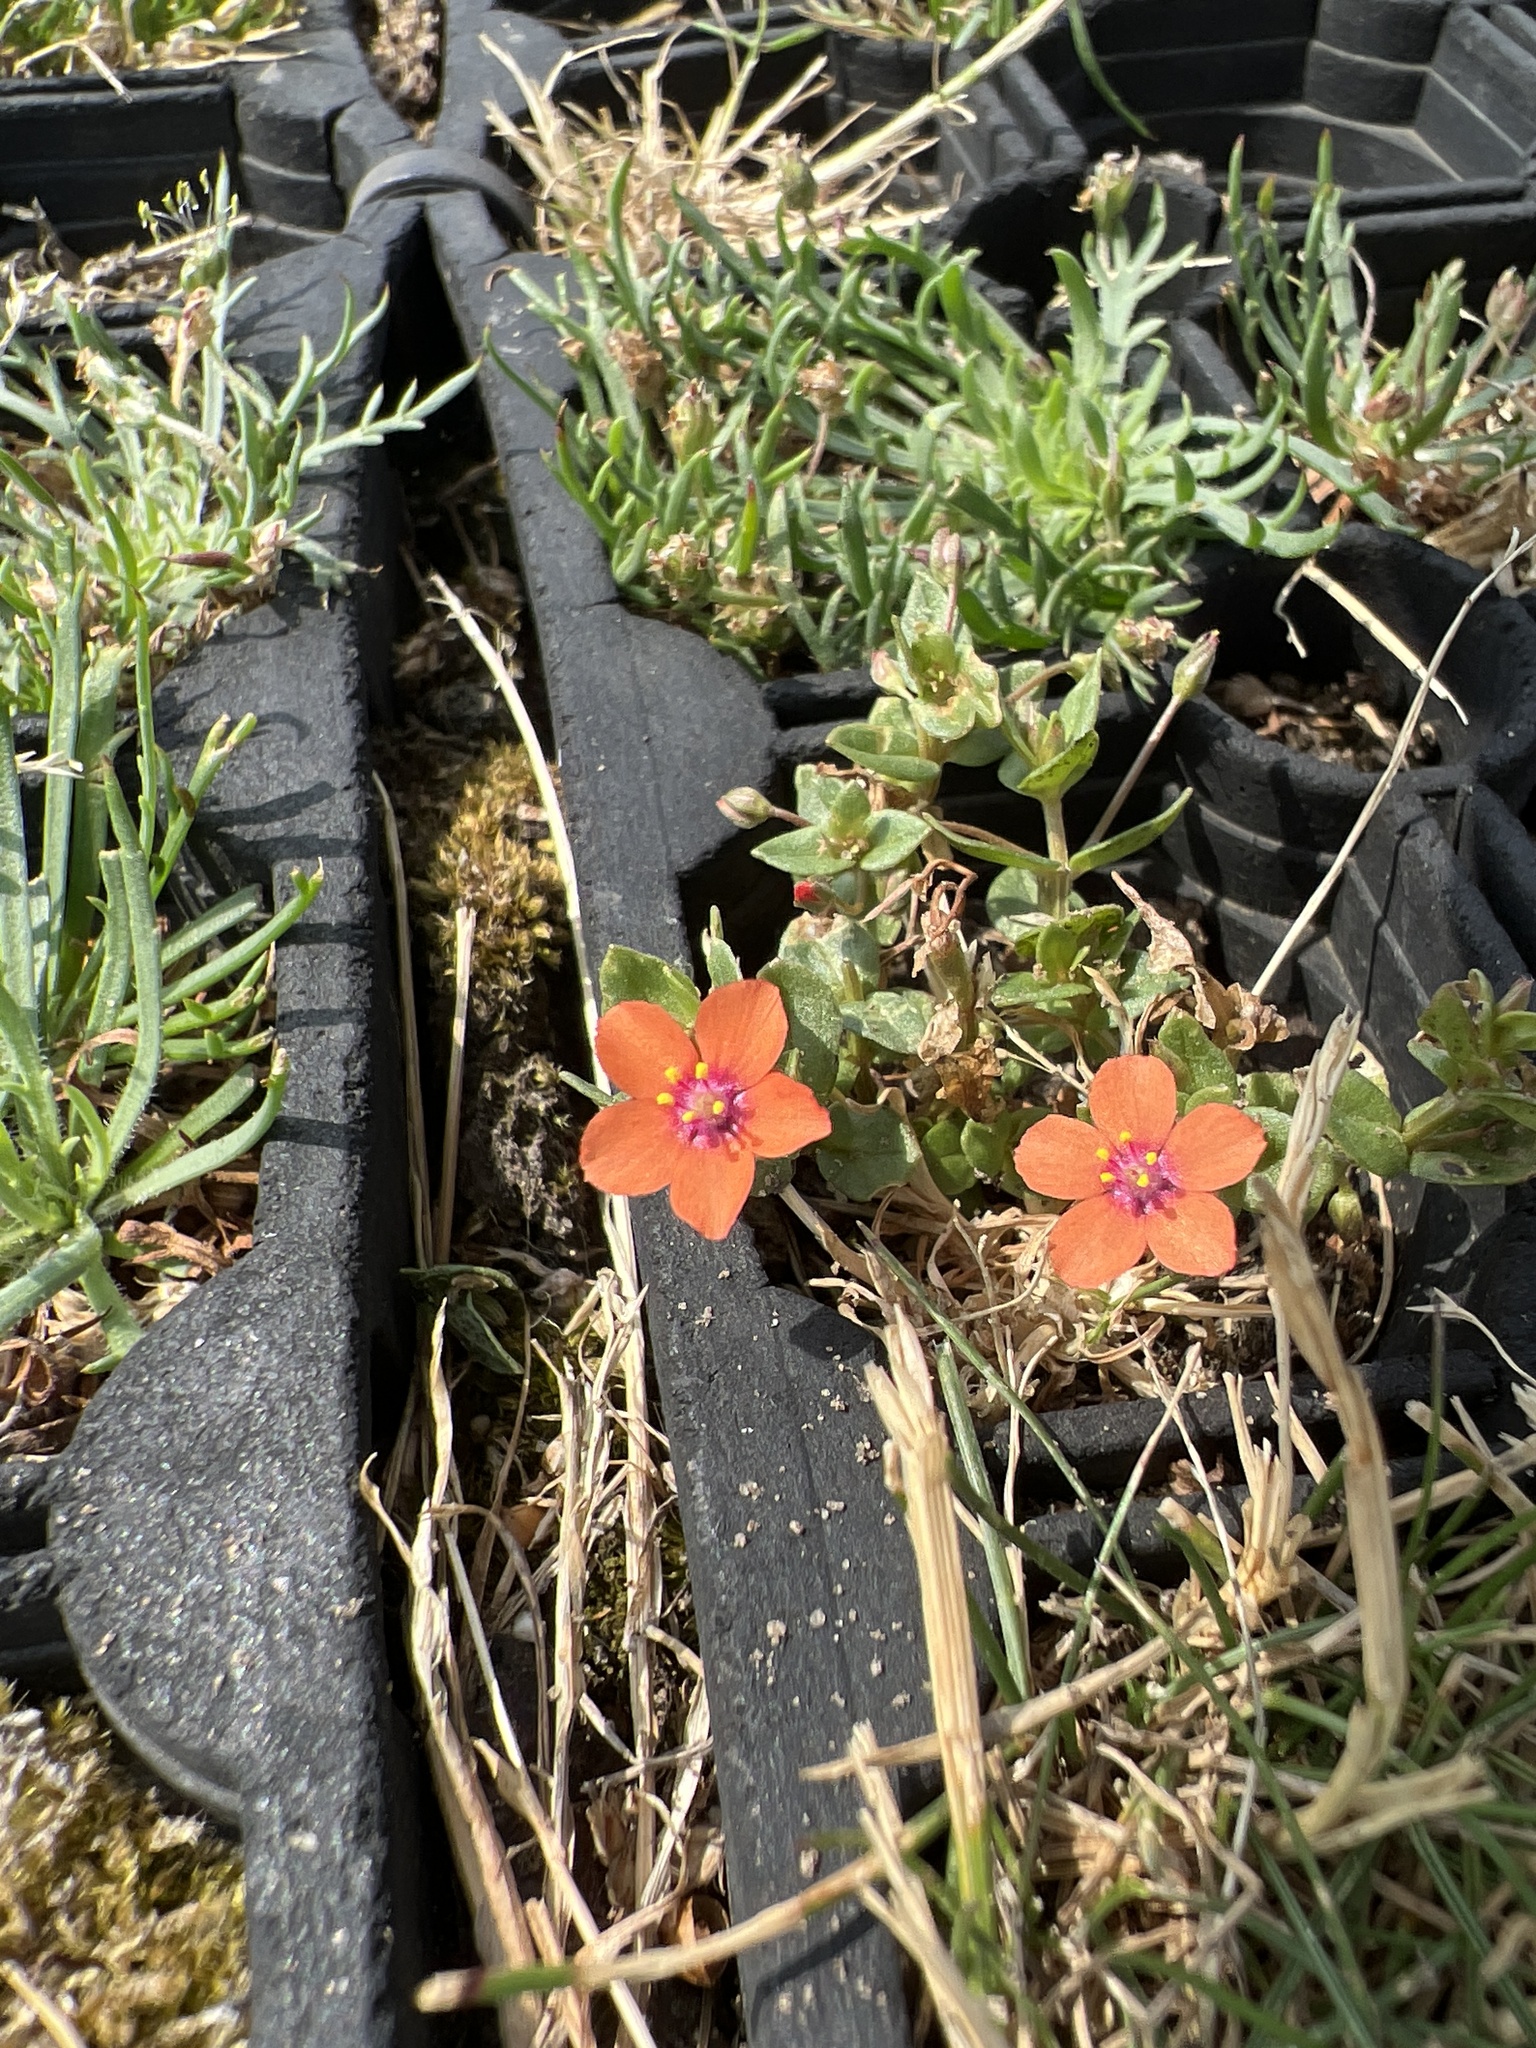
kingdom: Plantae
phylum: Tracheophyta
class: Magnoliopsida
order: Ericales
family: Primulaceae
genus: Lysimachia
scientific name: Lysimachia arvensis
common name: Scarlet pimpernel
